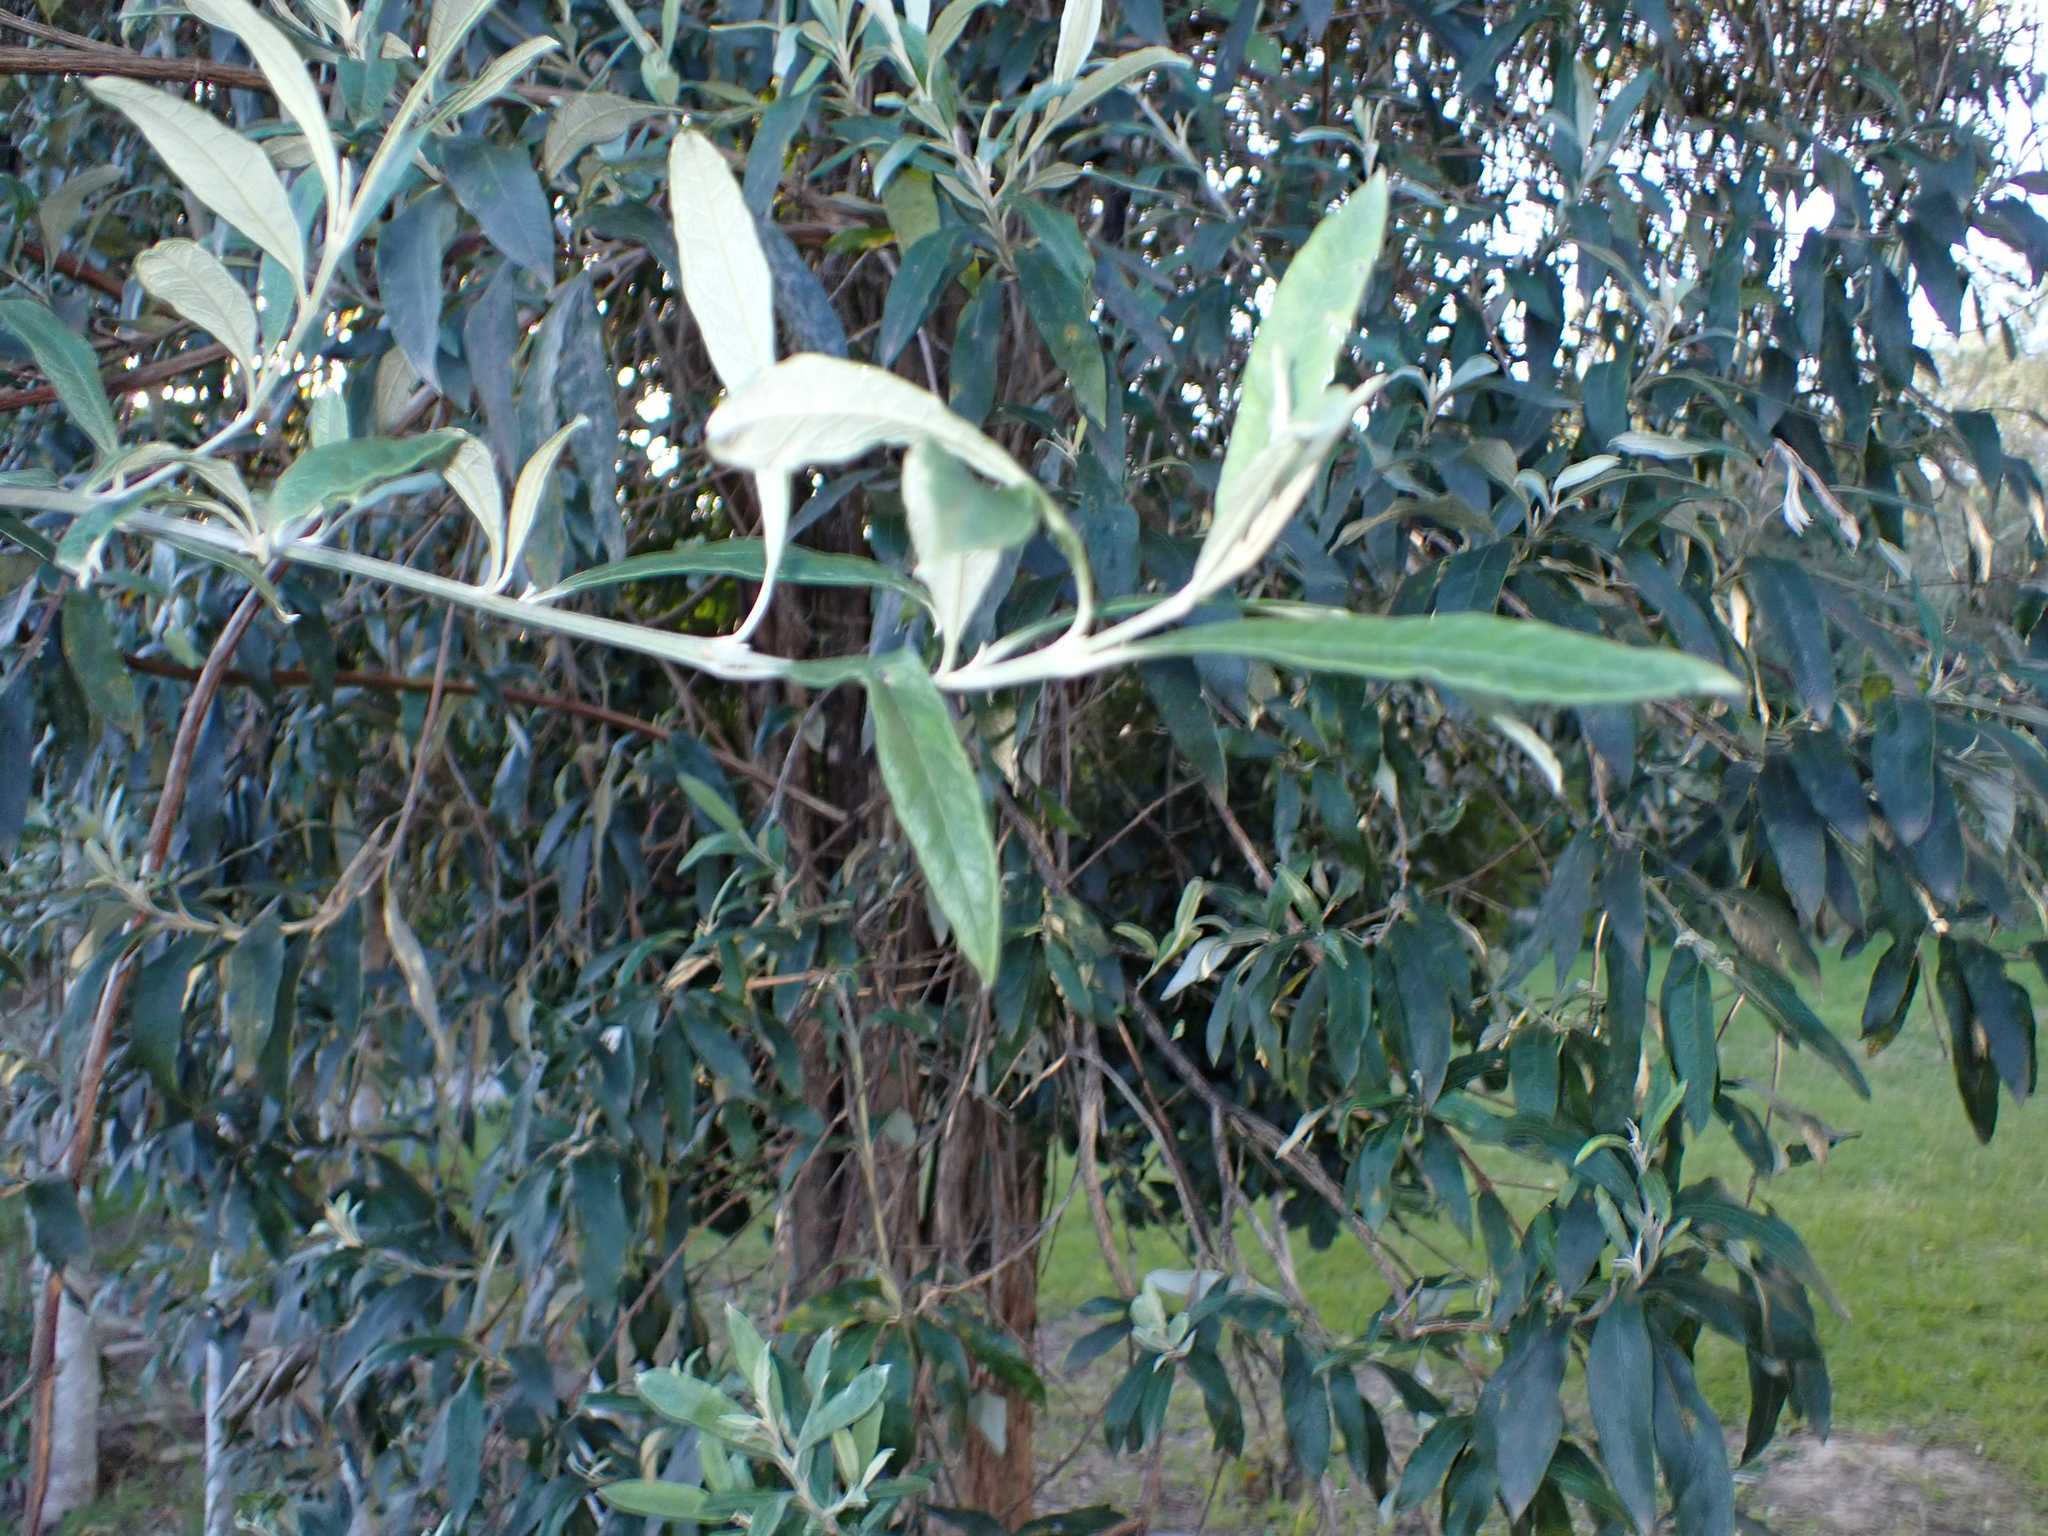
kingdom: Plantae
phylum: Tracheophyta
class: Magnoliopsida
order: Lamiales
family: Scrophulariaceae
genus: Buddleja
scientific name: Buddleja saligna
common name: False olive
